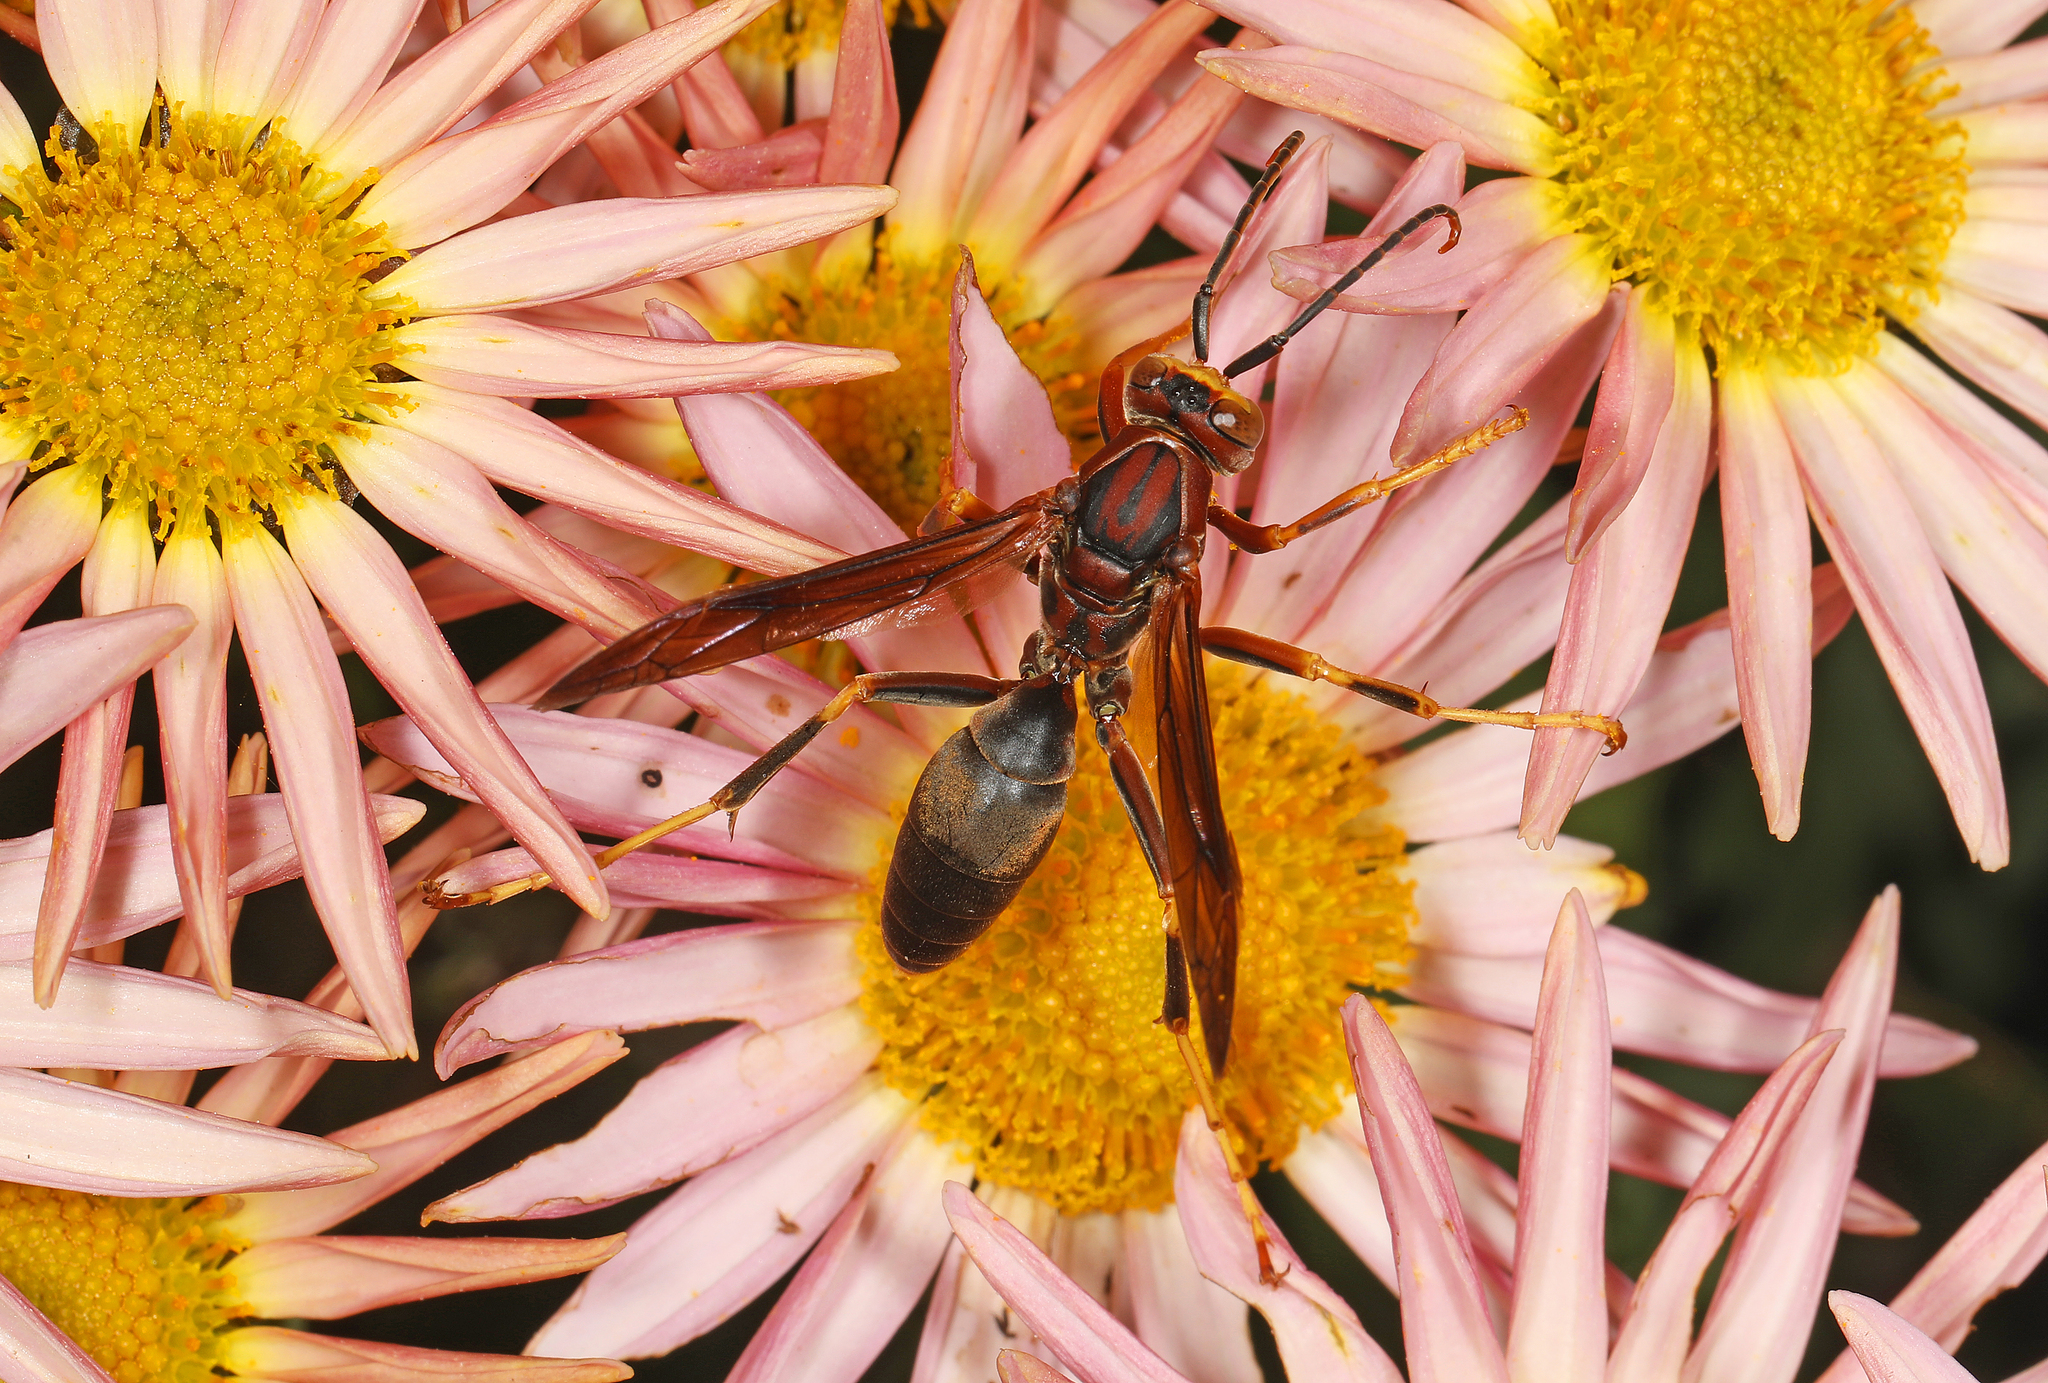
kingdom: Animalia
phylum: Arthropoda
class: Insecta
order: Hymenoptera
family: Eumenidae
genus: Polistes
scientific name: Polistes metricus
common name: Metric paper wasp
